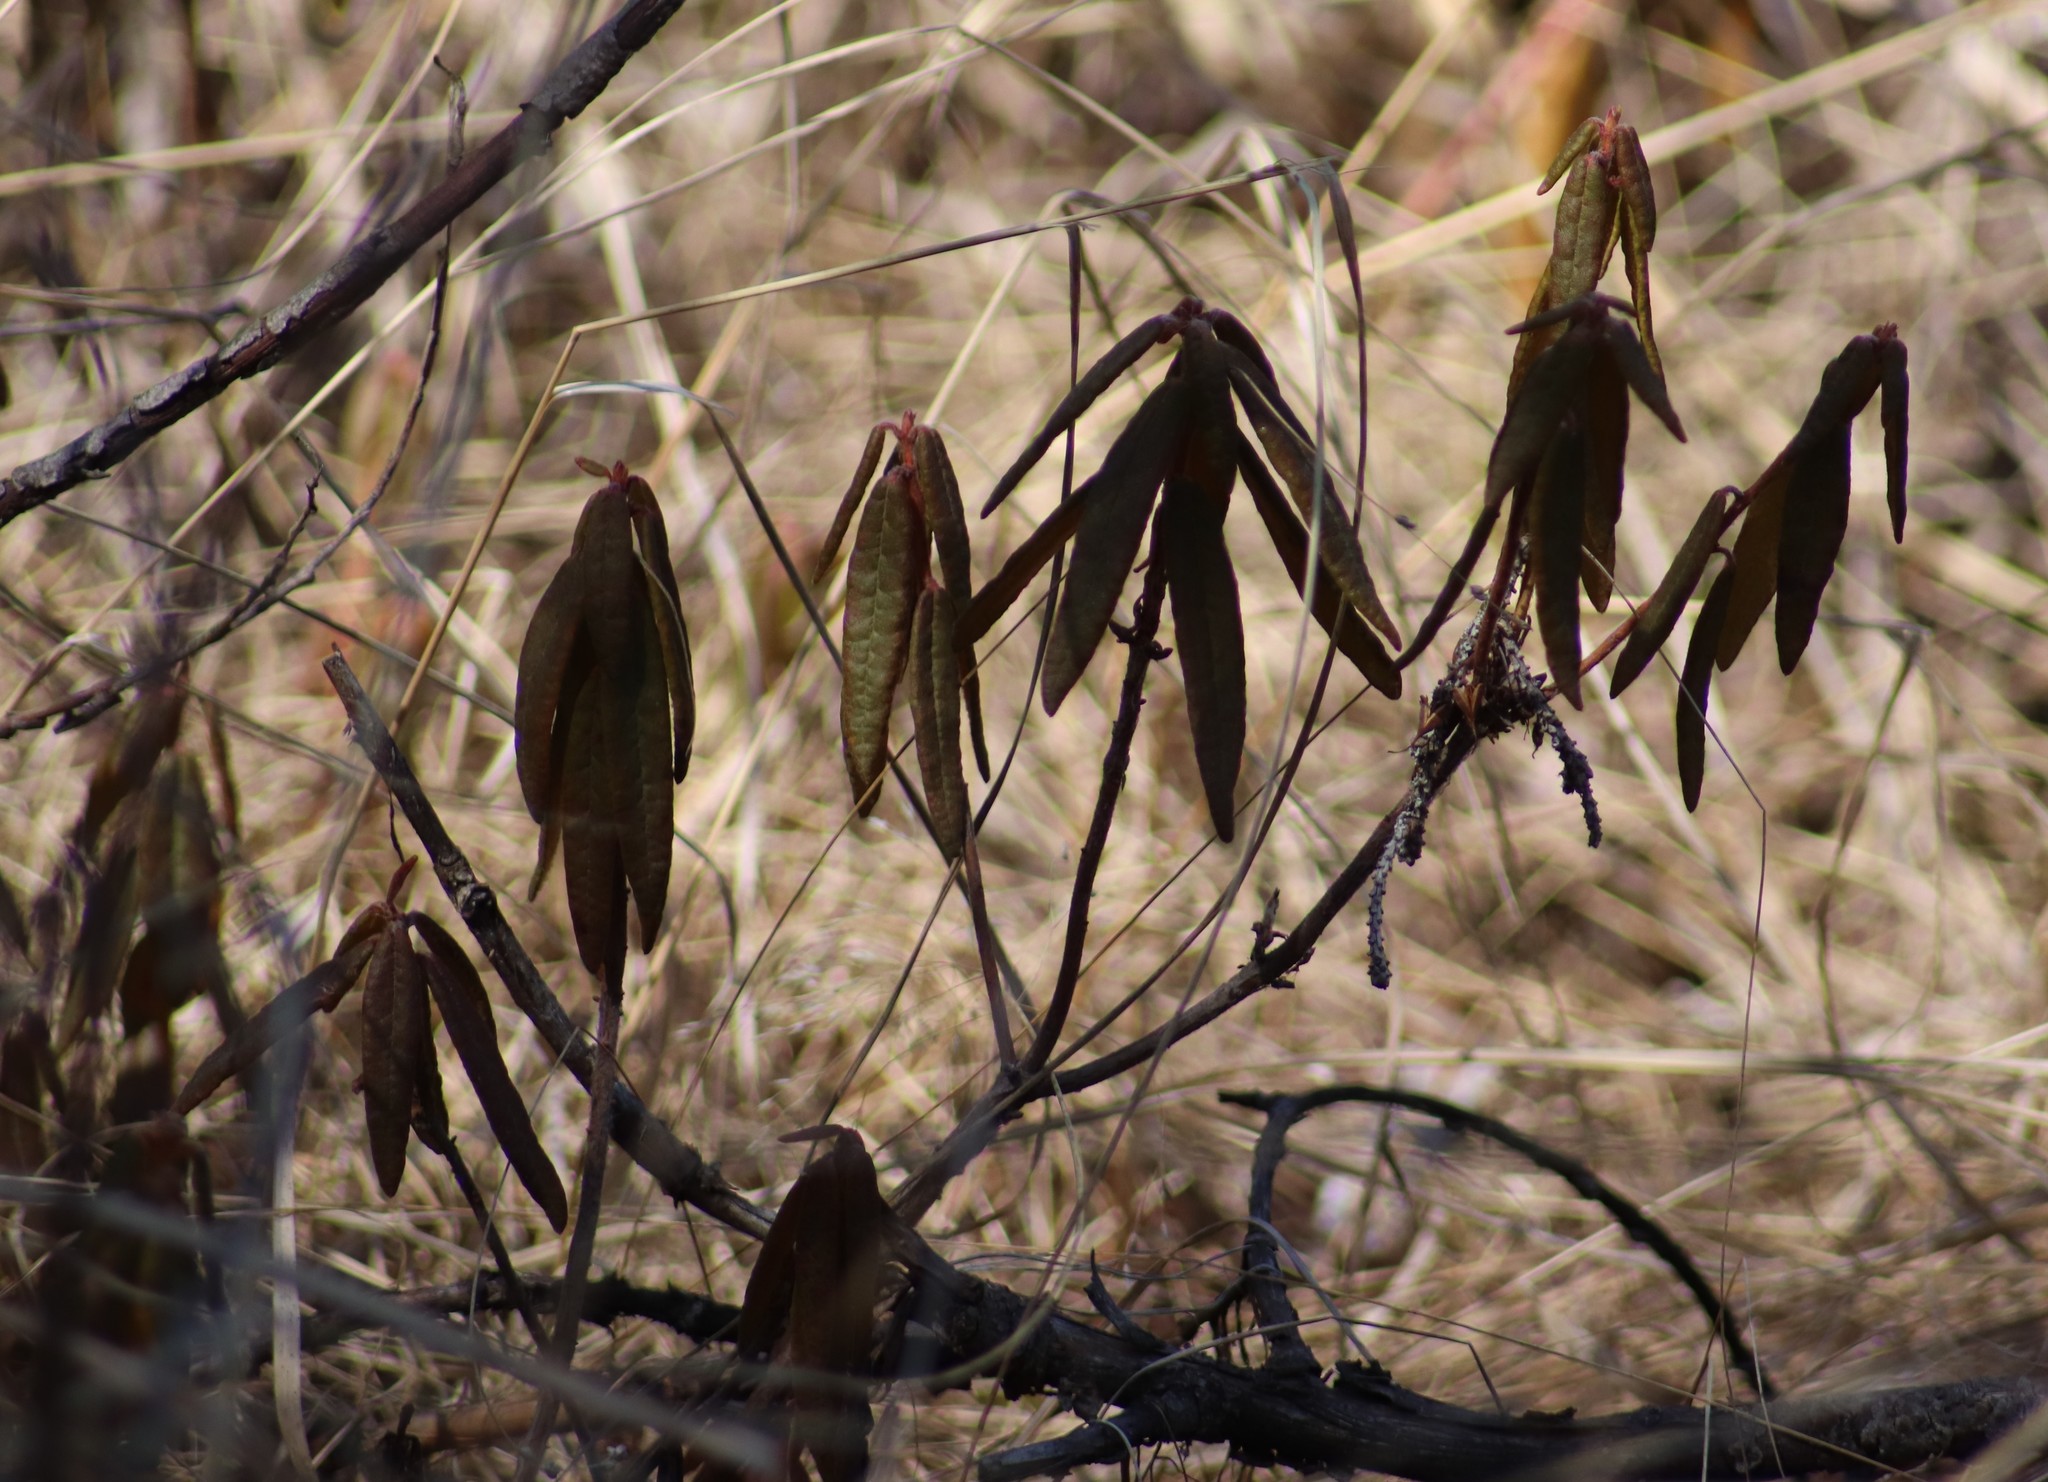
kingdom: Plantae
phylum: Tracheophyta
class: Magnoliopsida
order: Ericales
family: Ericaceae
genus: Rhododendron
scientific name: Rhododendron groenlandicum
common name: Bog labrador tea
